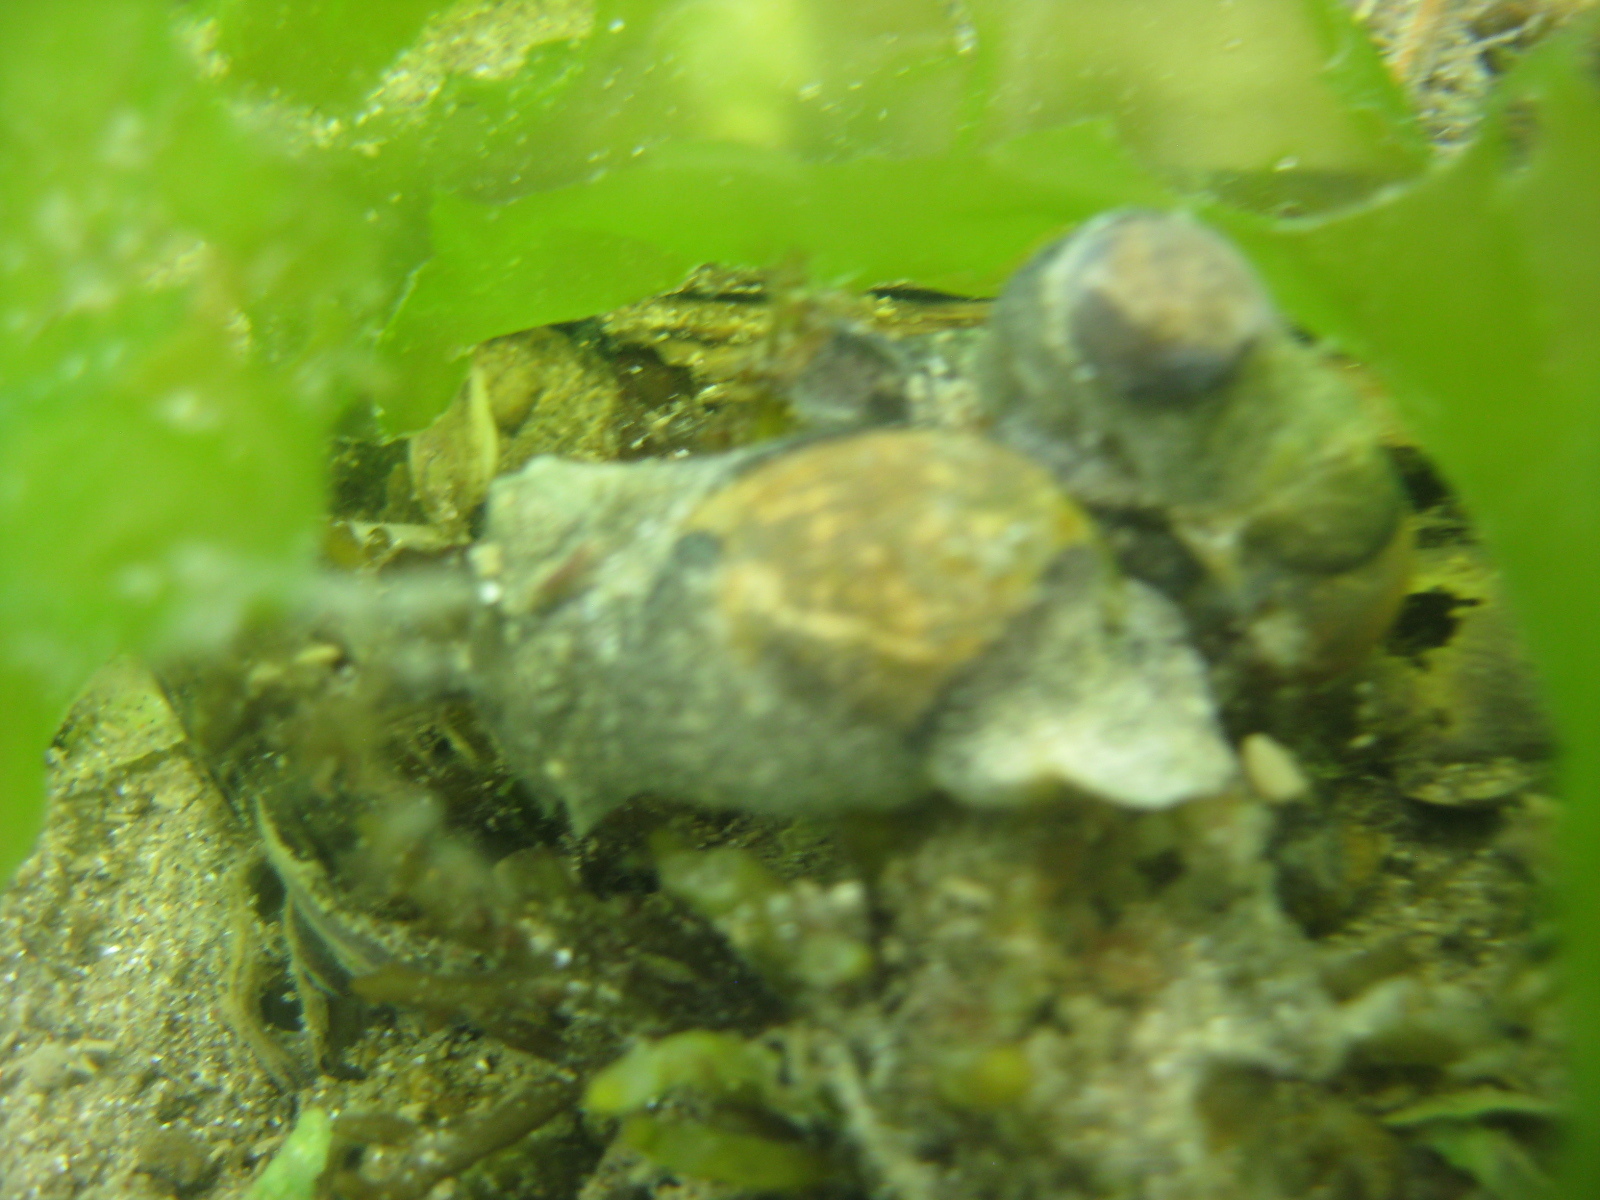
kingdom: Animalia
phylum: Mollusca
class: Gastropoda
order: Cephalaspidea
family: Haminoeidae
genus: Papawera
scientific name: Papawera zelandiae
